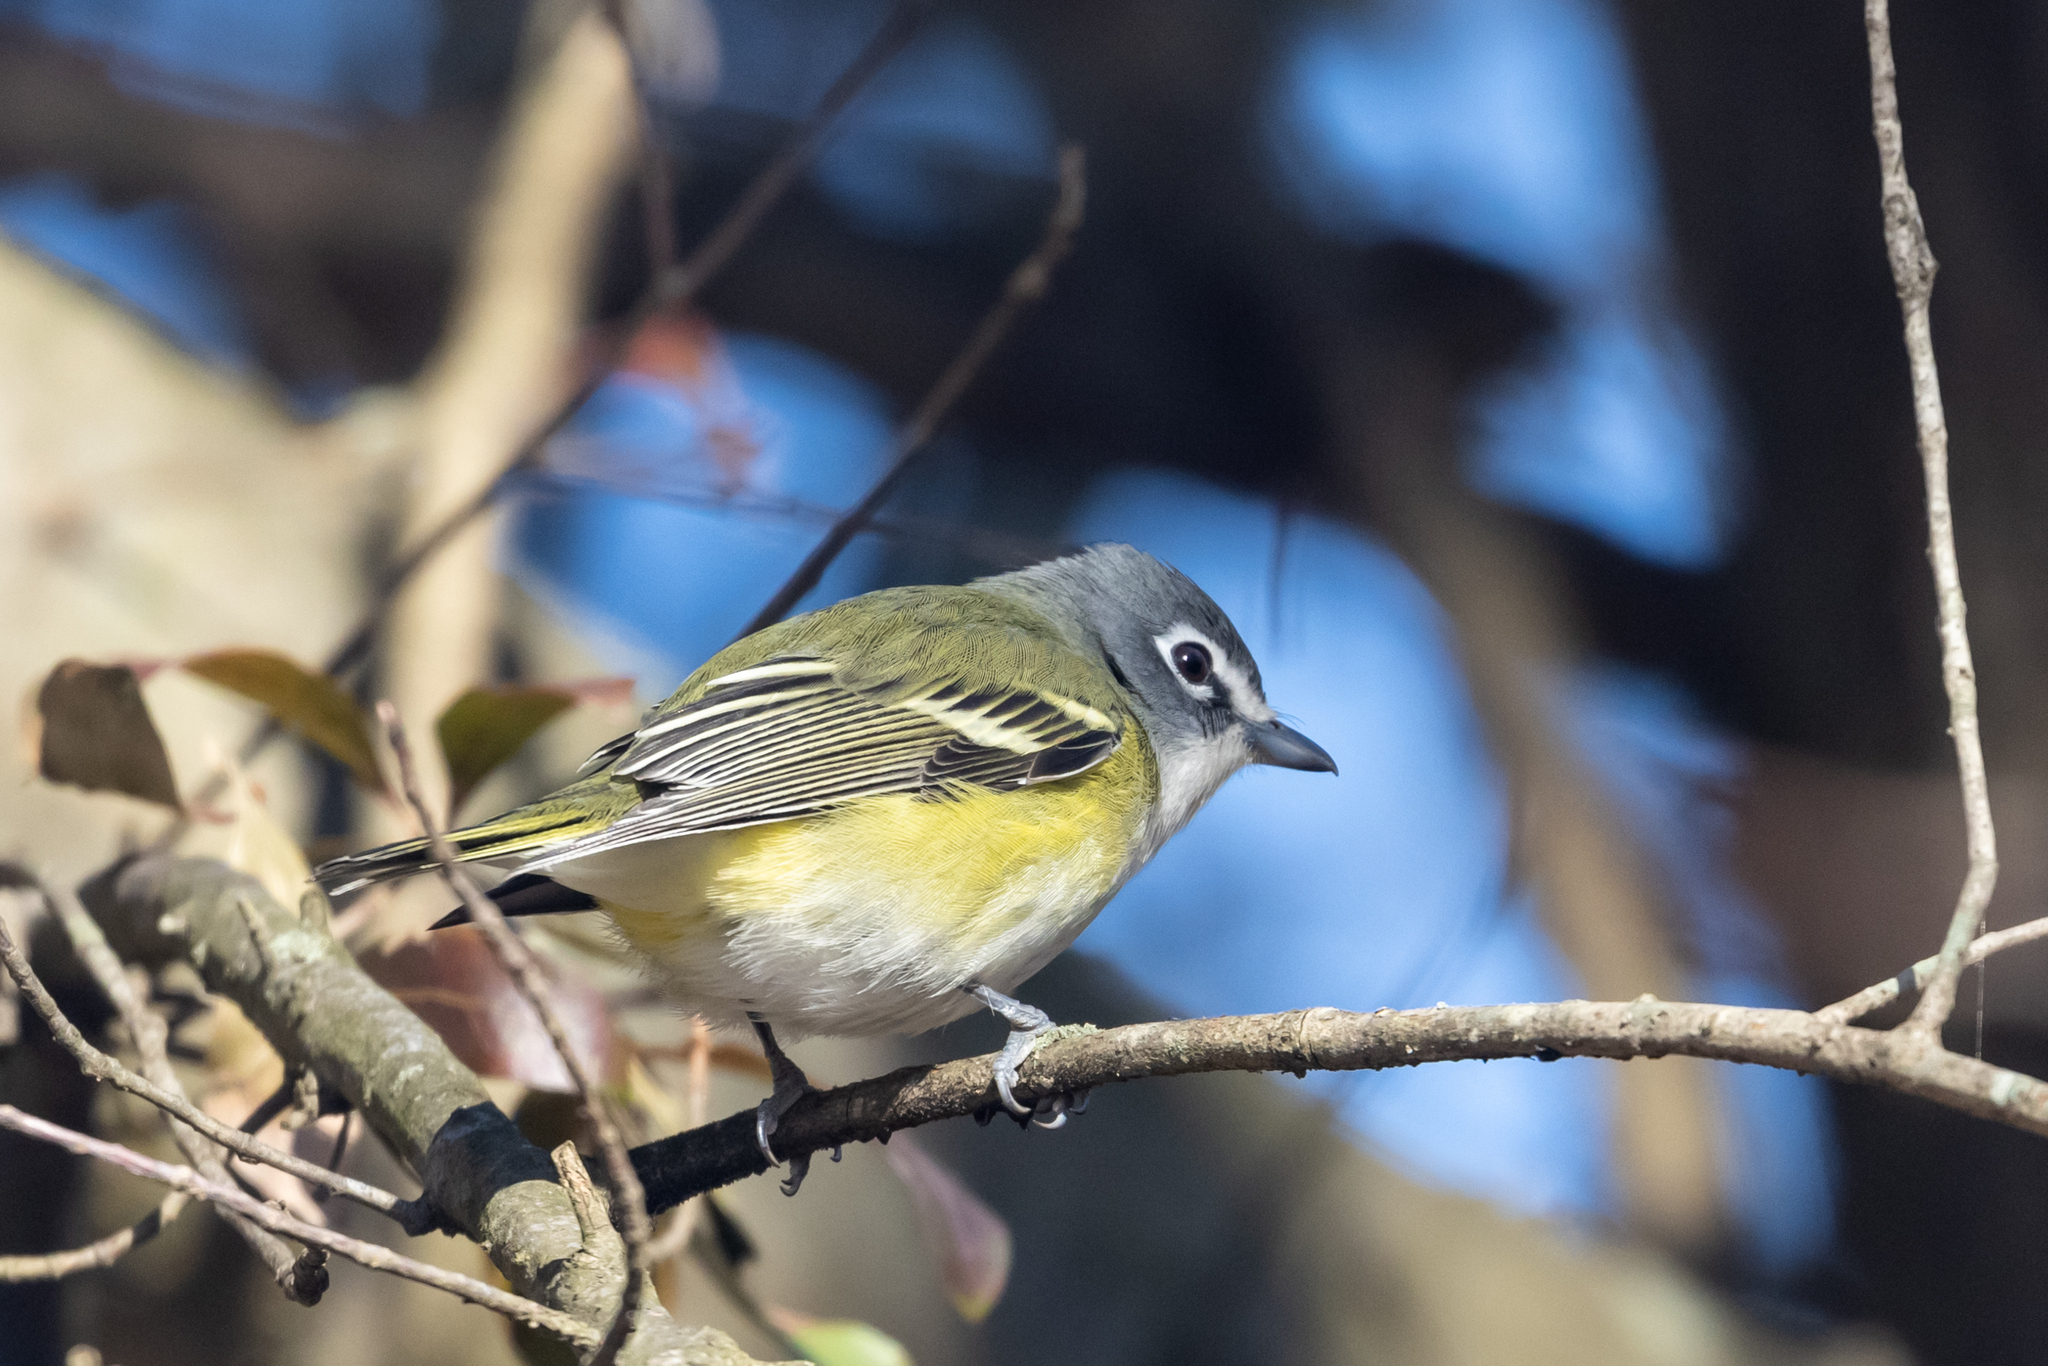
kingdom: Animalia
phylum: Chordata
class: Aves
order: Passeriformes
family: Vireonidae
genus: Vireo
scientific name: Vireo solitarius
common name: Blue-headed vireo
